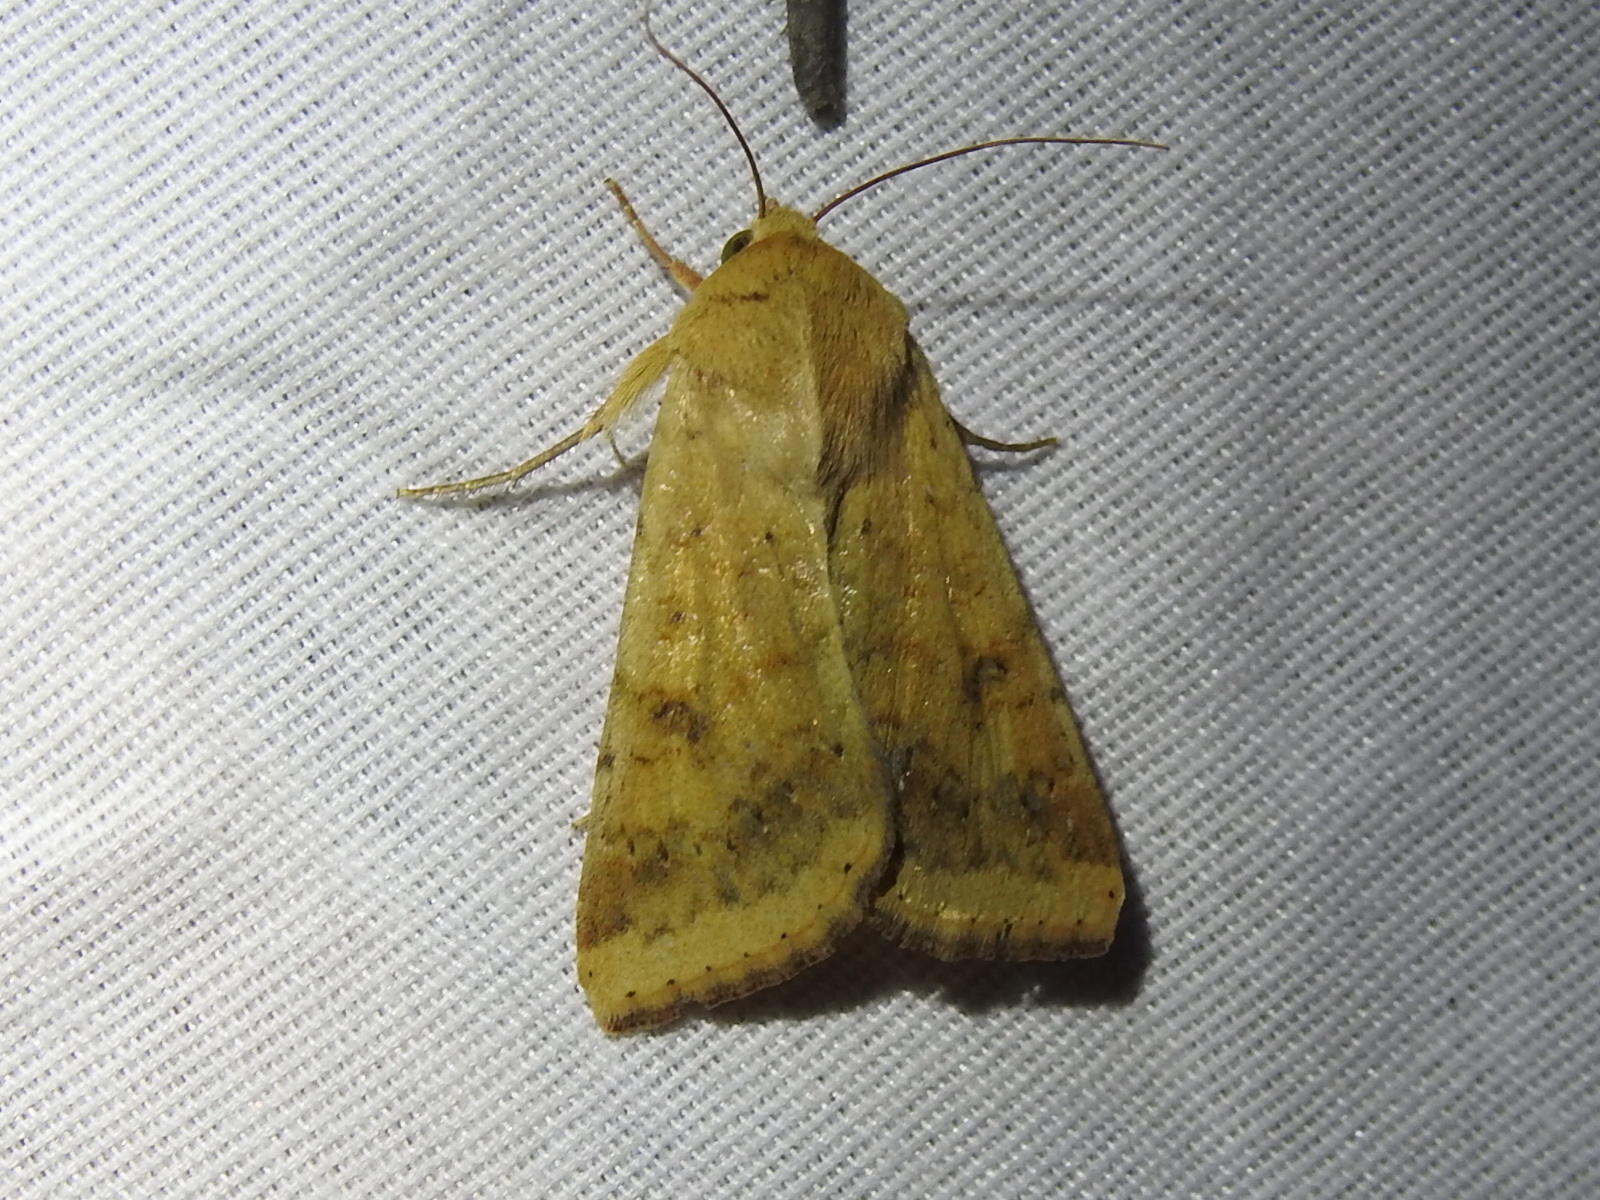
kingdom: Animalia
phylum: Arthropoda
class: Insecta
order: Lepidoptera
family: Noctuidae
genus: Helicoverpa
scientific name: Helicoverpa zea
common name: Bollworm
